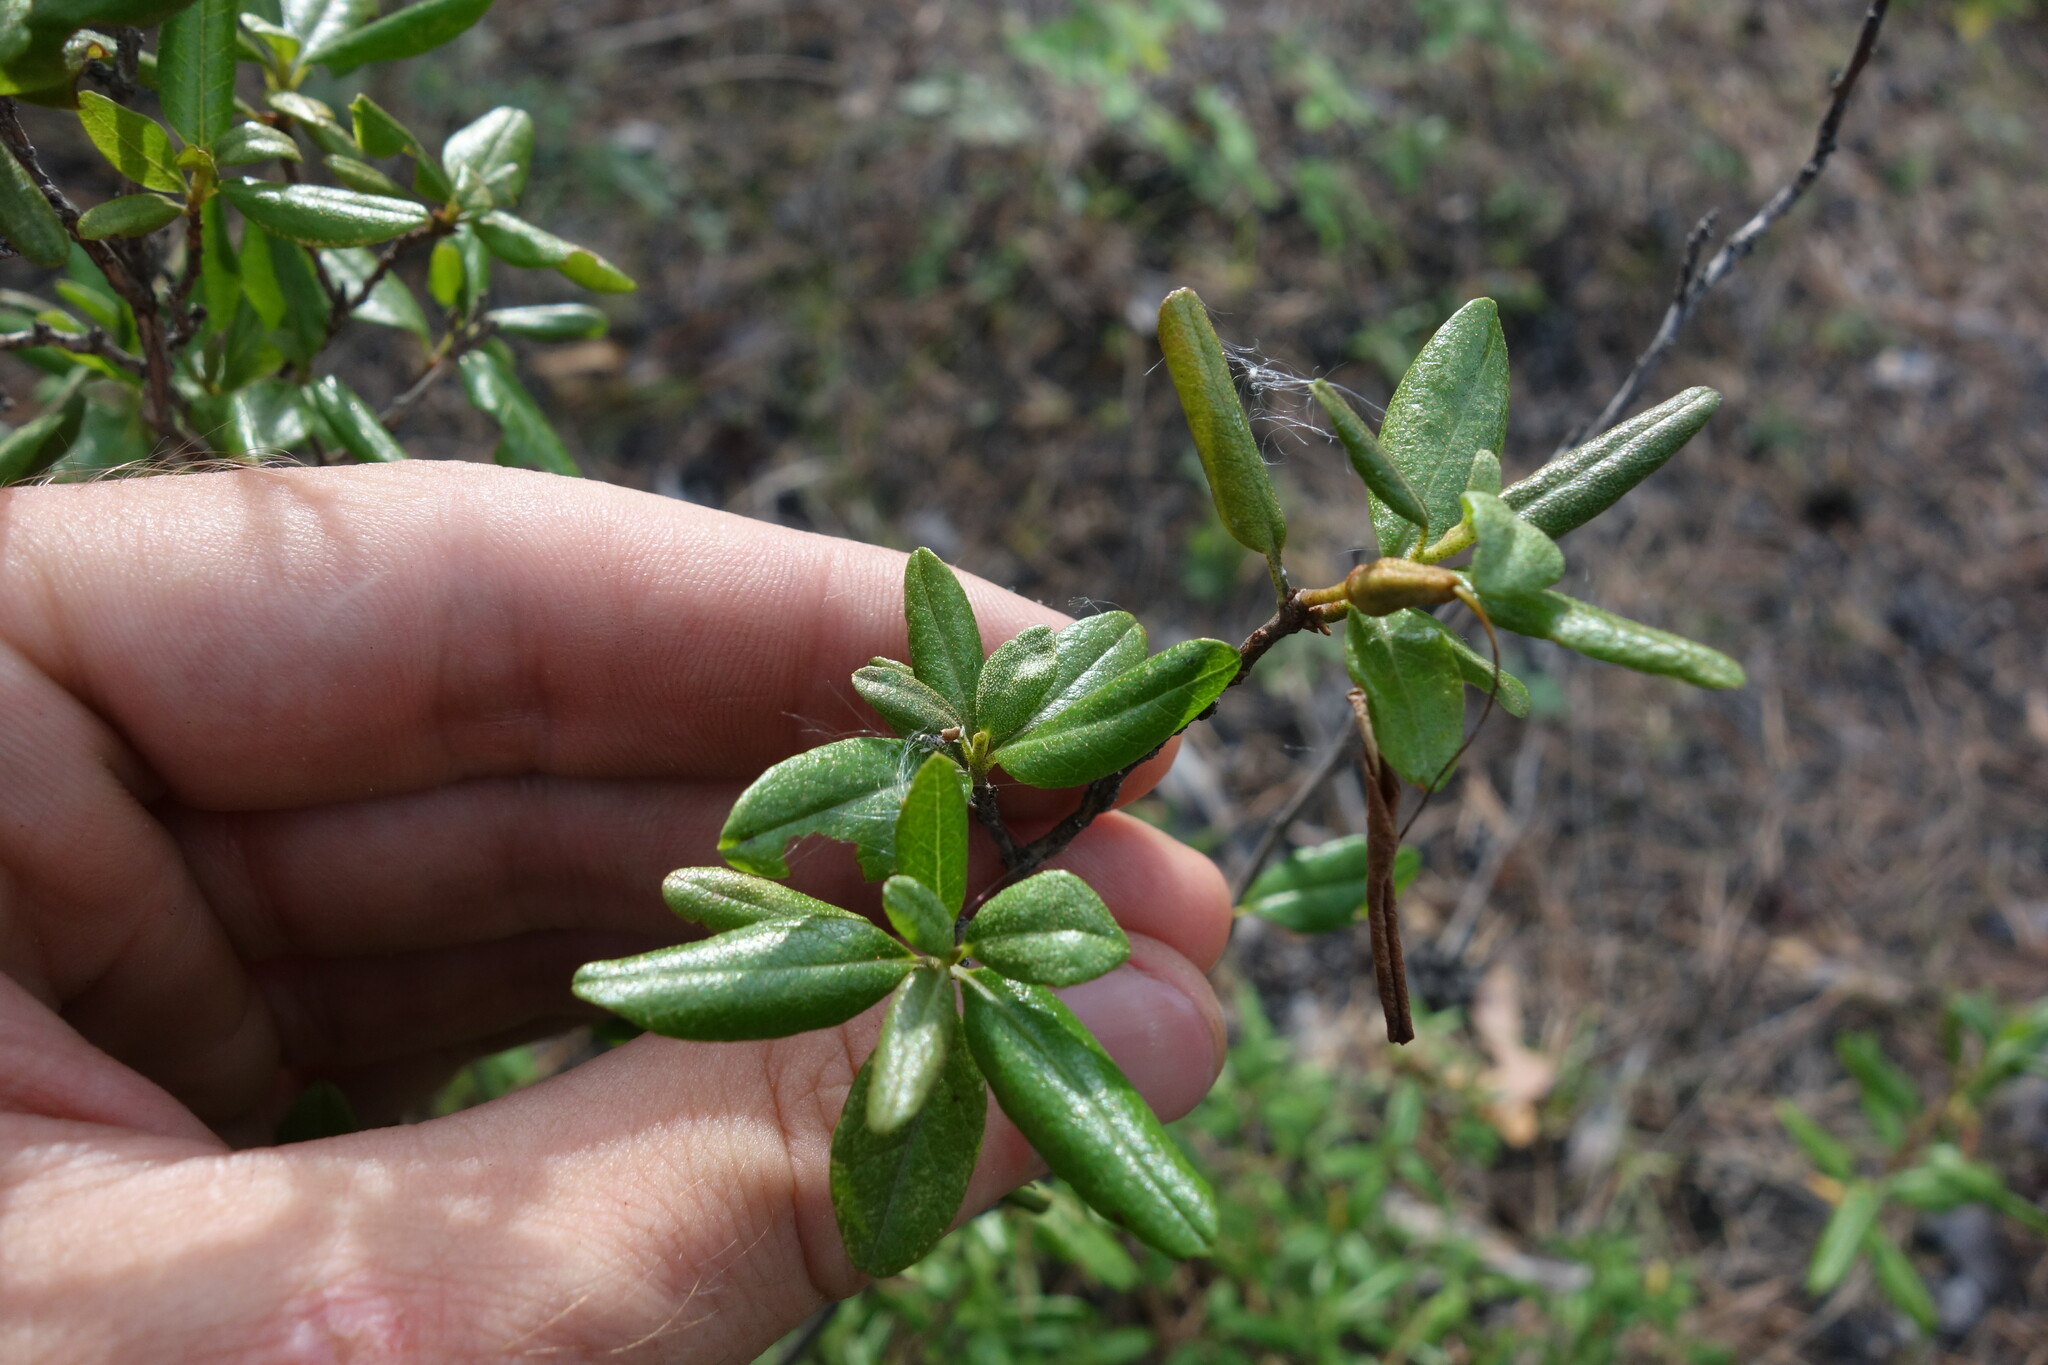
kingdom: Plantae
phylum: Tracheophyta
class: Magnoliopsida
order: Ericales
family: Ericaceae
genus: Rhododendron
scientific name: Rhododendron dauricum
